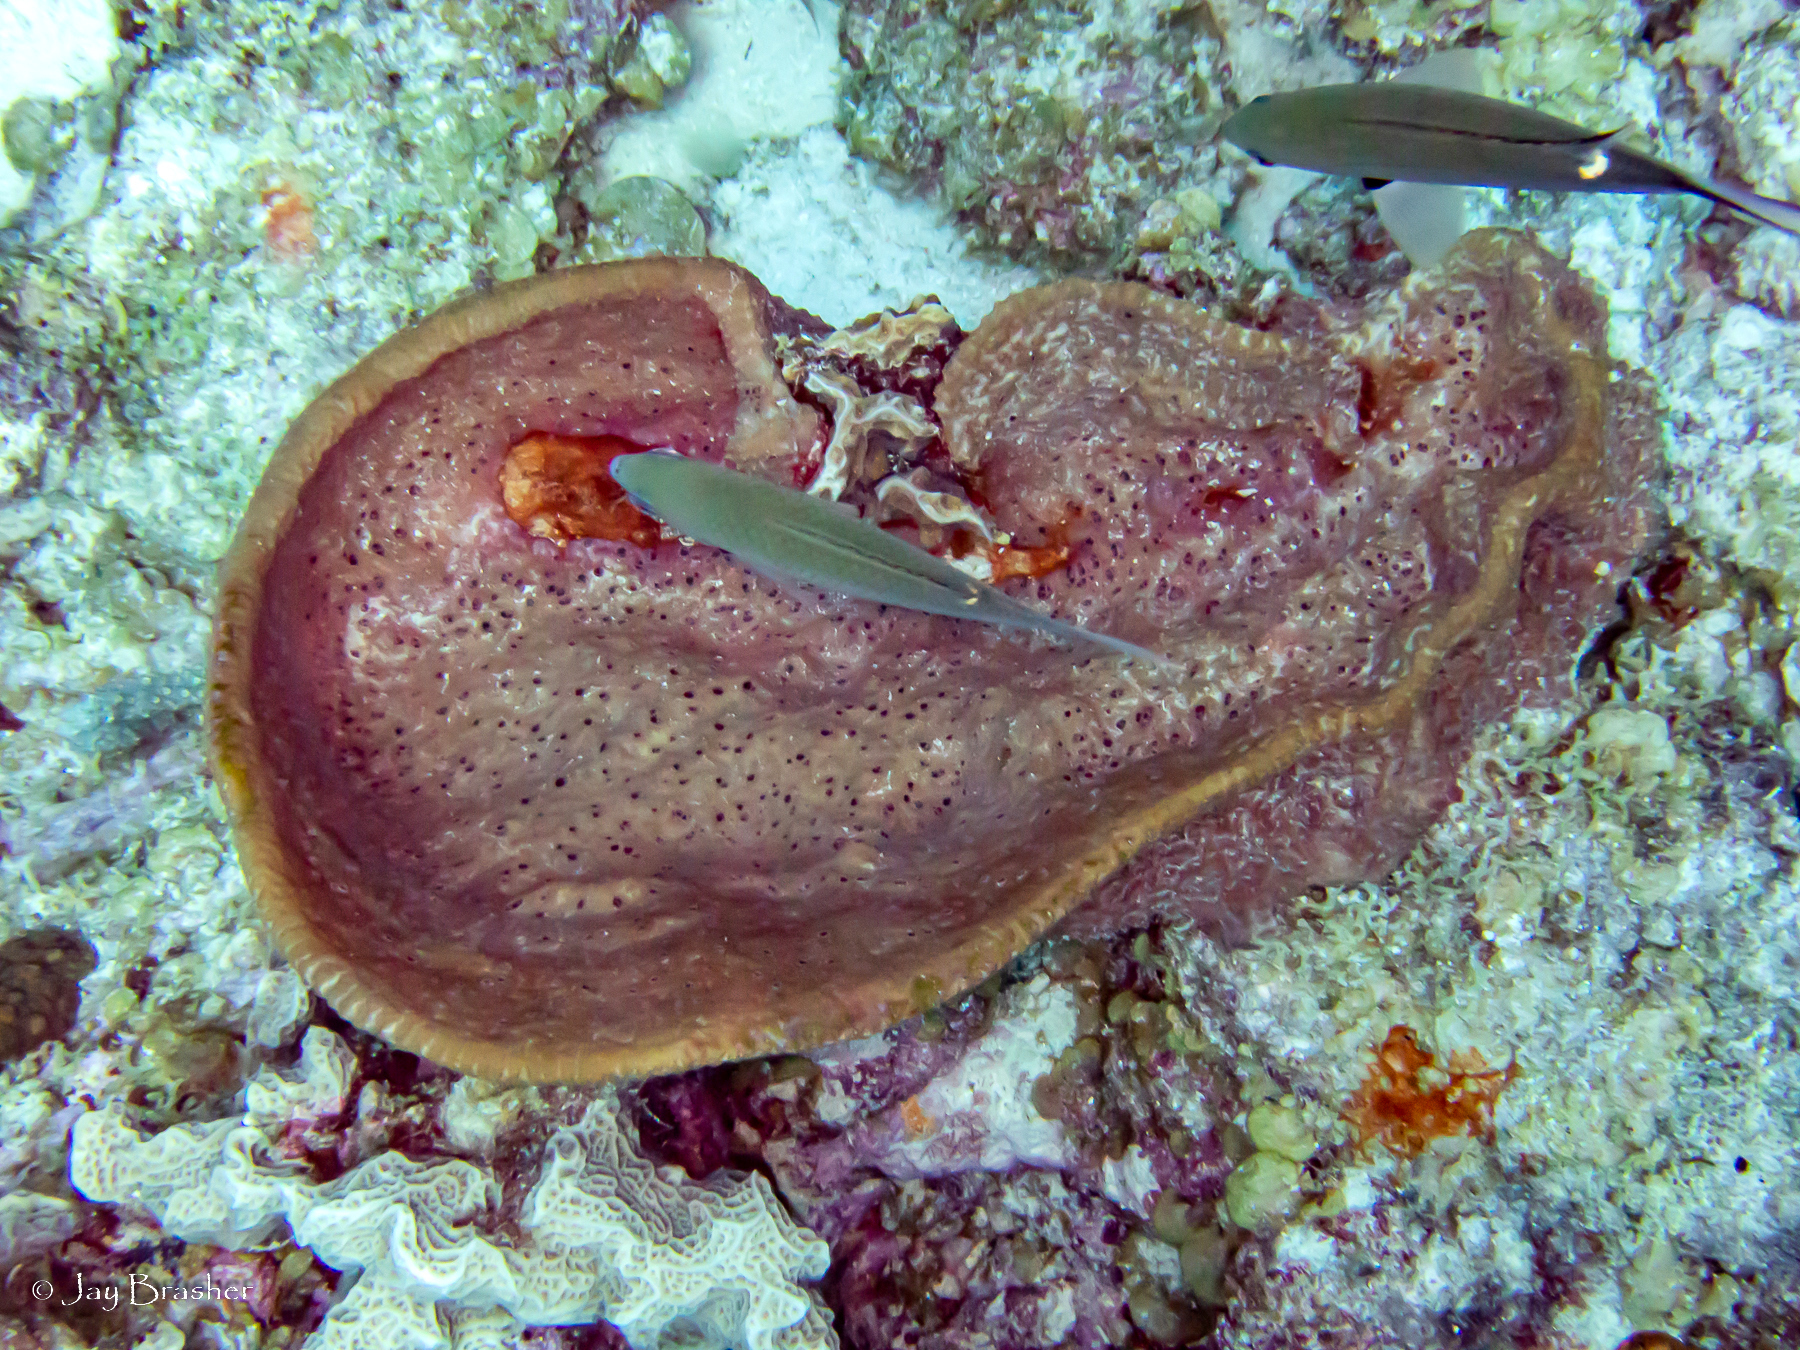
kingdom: Animalia
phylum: Porifera
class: Demospongiae
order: Dictyoceratida
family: Irciniidae
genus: Ircinia
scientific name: Ircinia campana
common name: Vase sponge
